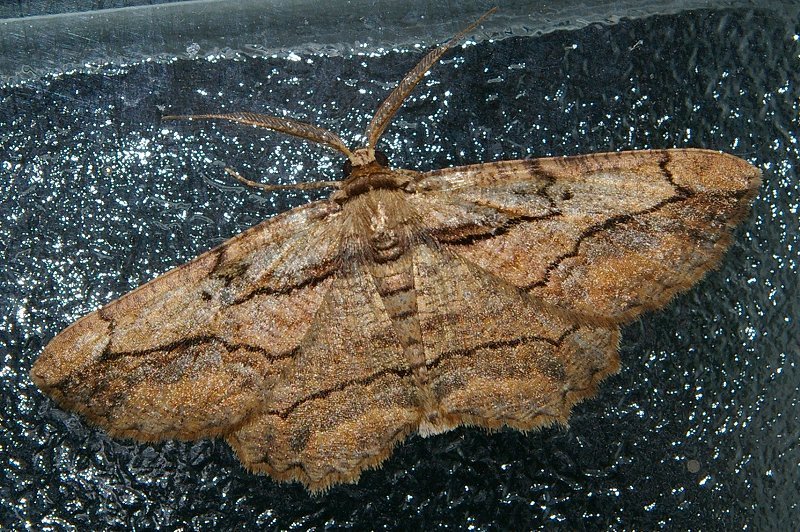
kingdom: Animalia
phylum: Arthropoda
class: Insecta
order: Lepidoptera
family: Geometridae
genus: Menophra
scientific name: Menophra senilis
